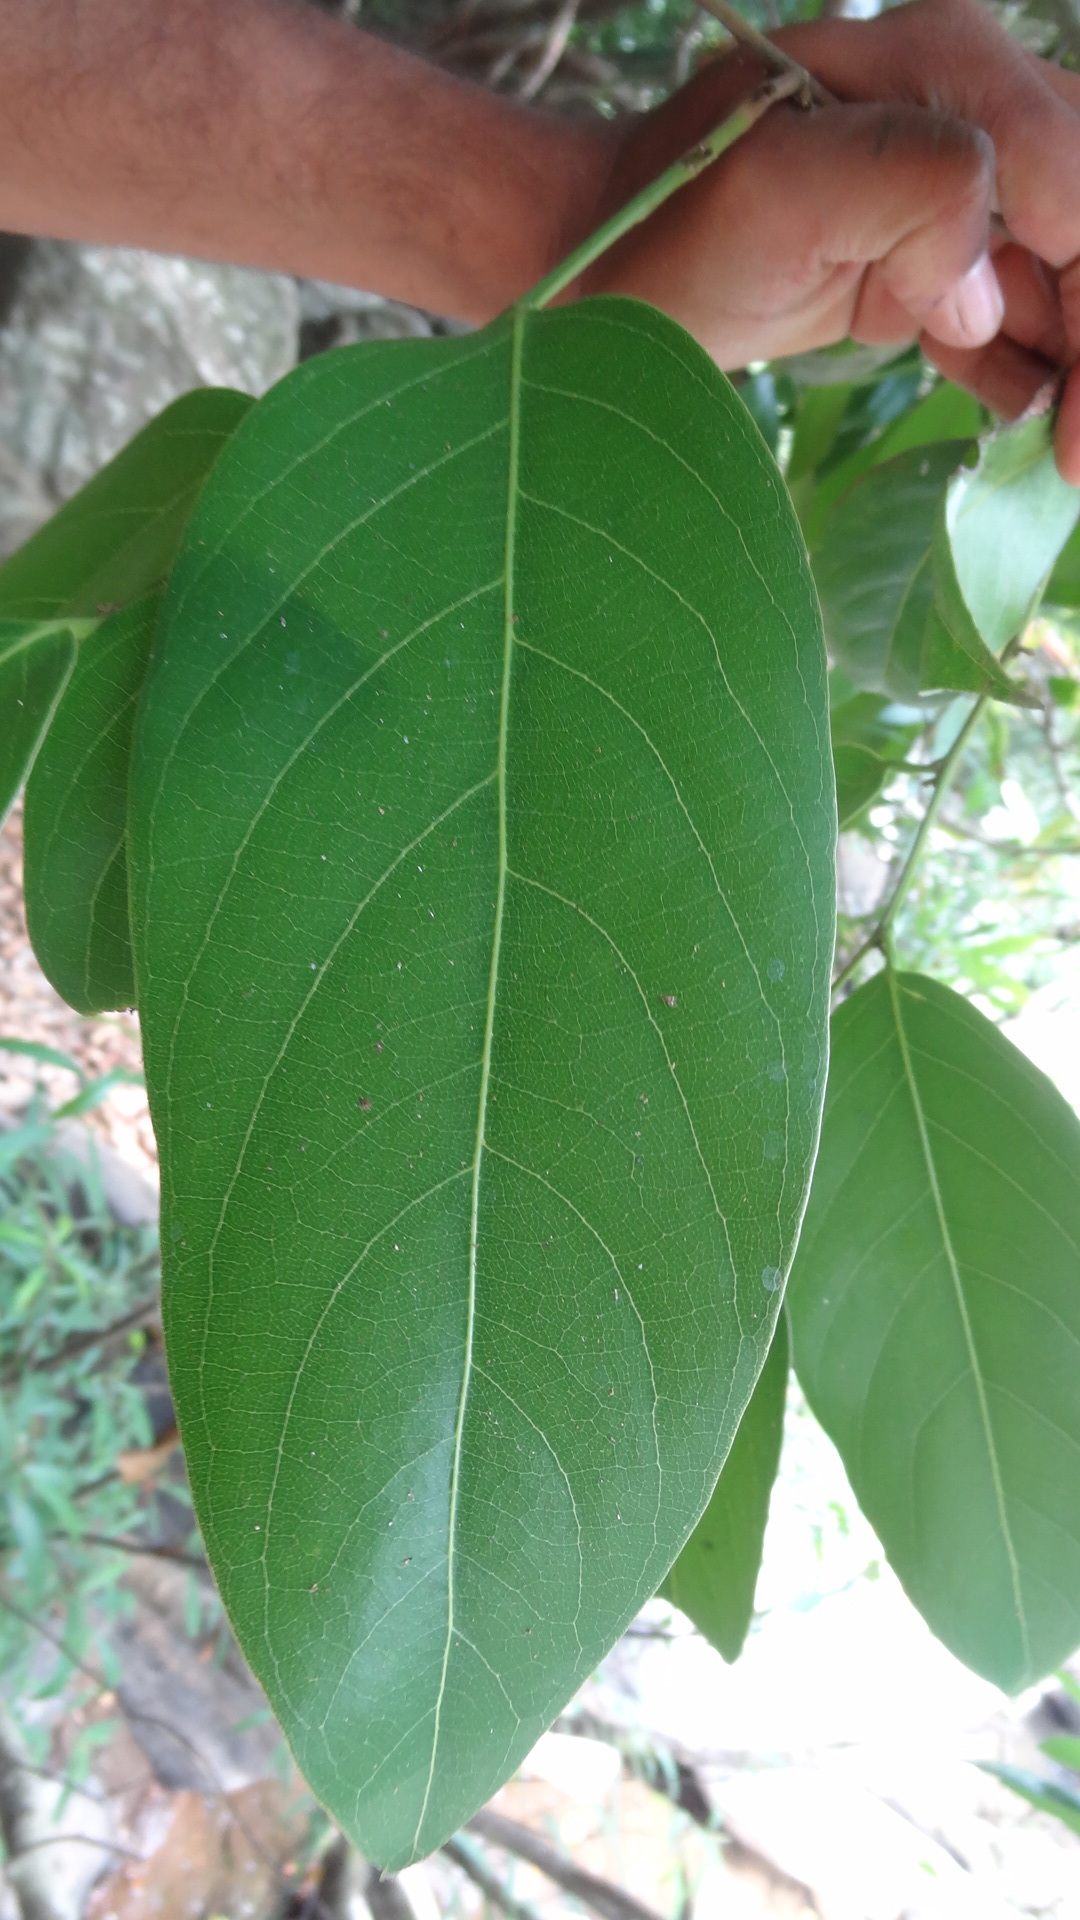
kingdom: Plantae
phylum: Tracheophyta
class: Magnoliopsida
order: Malpighiales
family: Achariaceae
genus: Hydnocarpus
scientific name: Hydnocarpus alpinus
